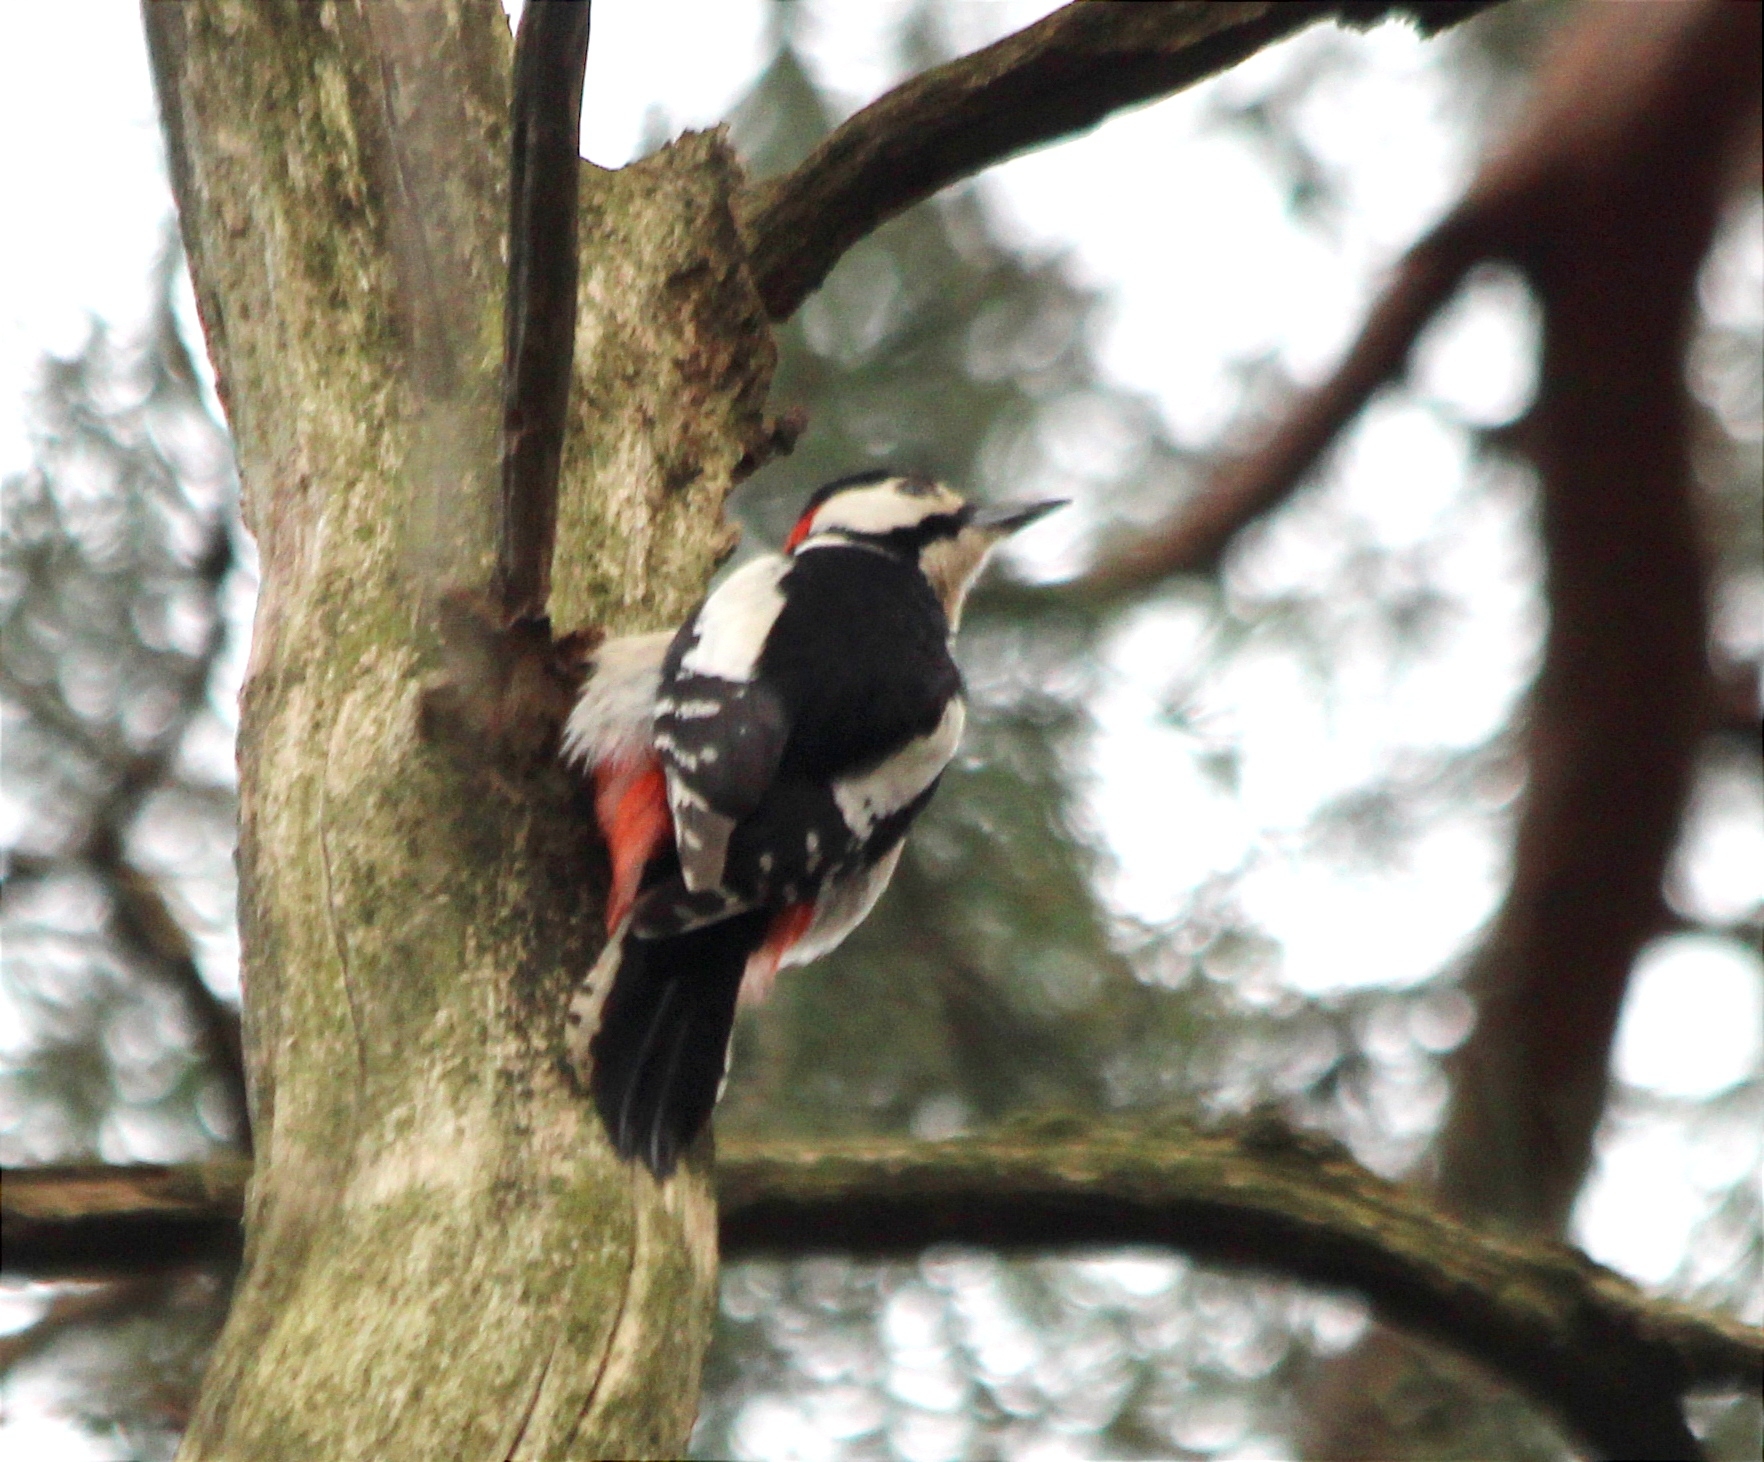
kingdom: Animalia
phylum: Chordata
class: Aves
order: Piciformes
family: Picidae
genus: Dendrocopos
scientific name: Dendrocopos major
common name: Great spotted woodpecker
